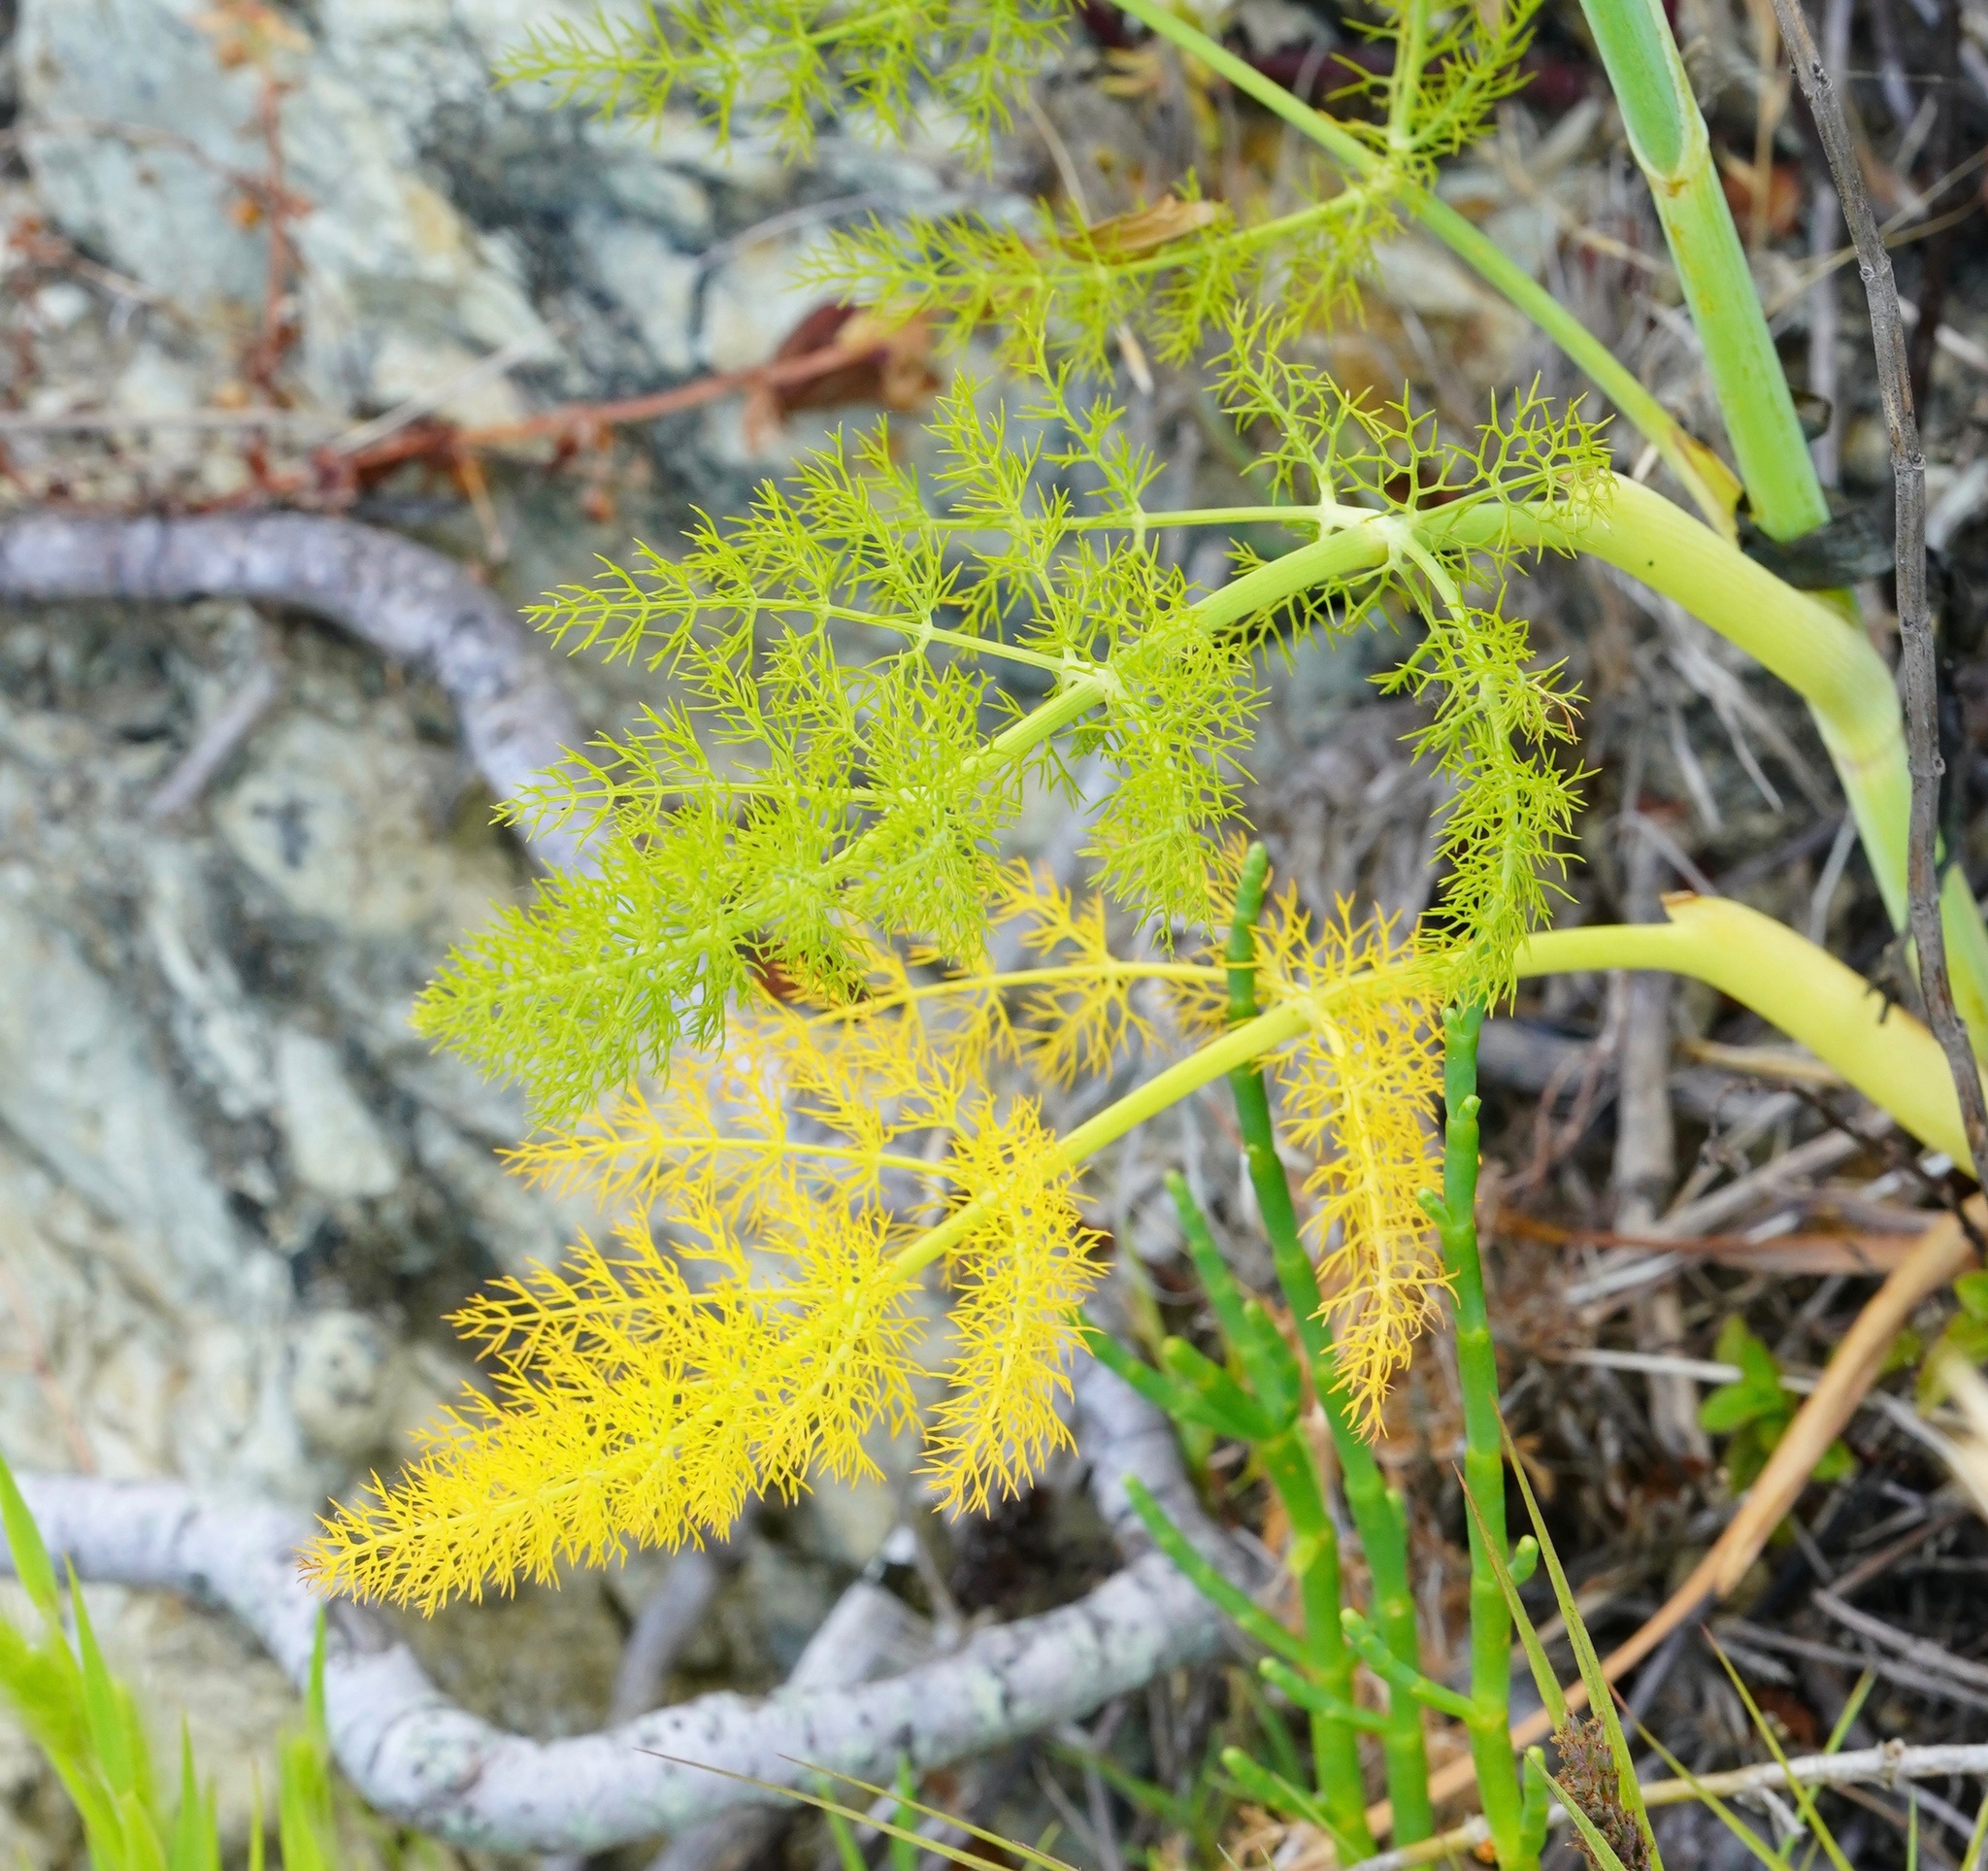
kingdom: Plantae
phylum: Tracheophyta
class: Magnoliopsida
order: Apiales
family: Apiaceae
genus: Foeniculum
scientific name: Foeniculum vulgare
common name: Fennel
